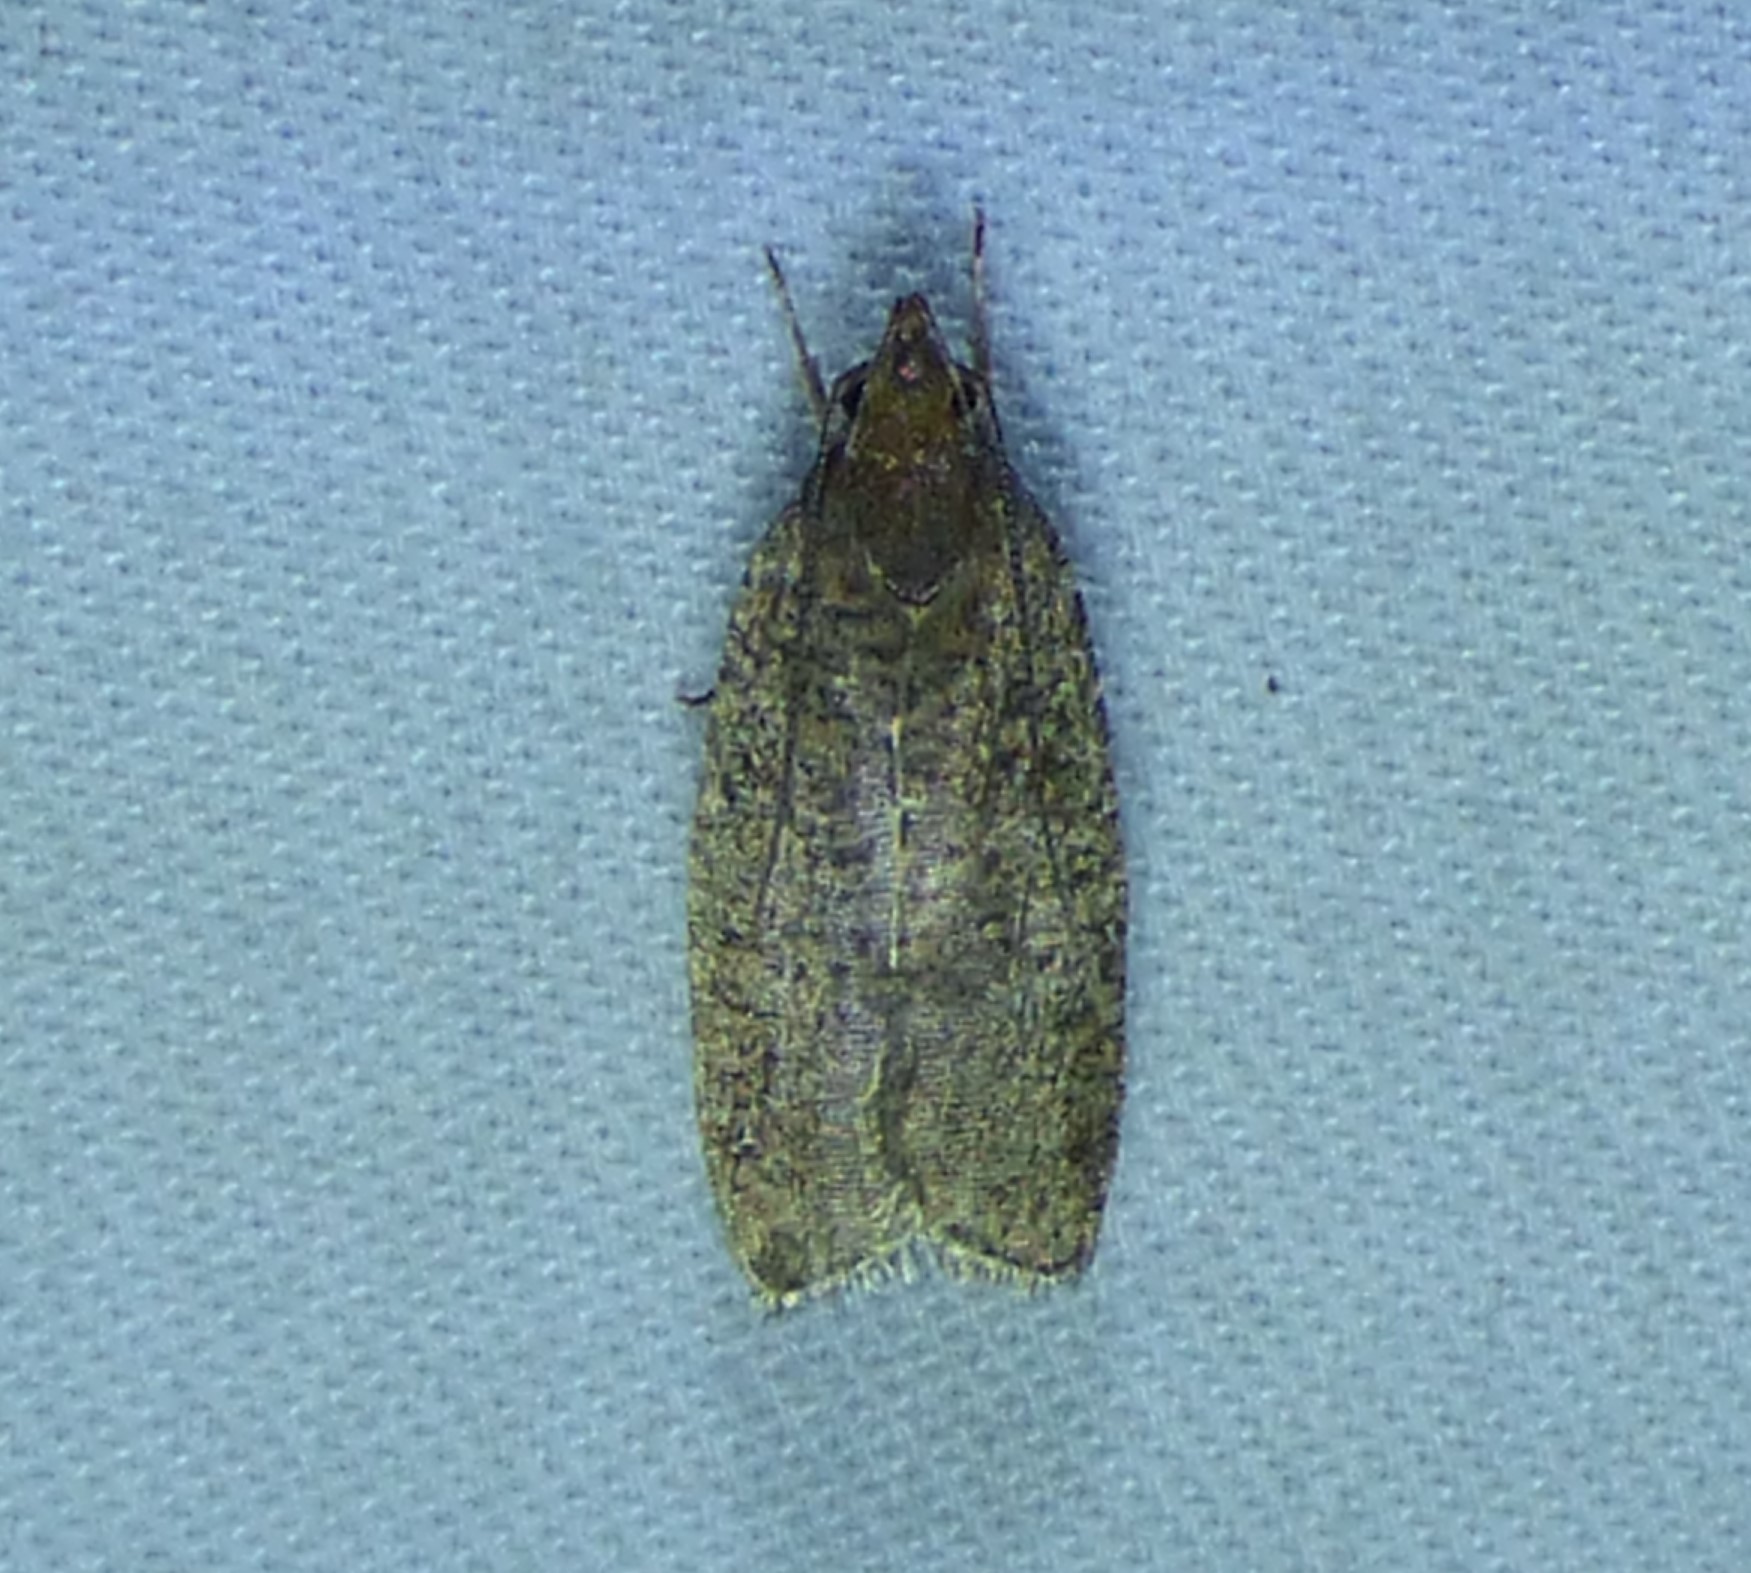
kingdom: Animalia
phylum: Arthropoda
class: Insecta
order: Lepidoptera
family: Depressariidae
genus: Psilocorsis
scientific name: Psilocorsis reflexella
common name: Dotted leaftier moth
